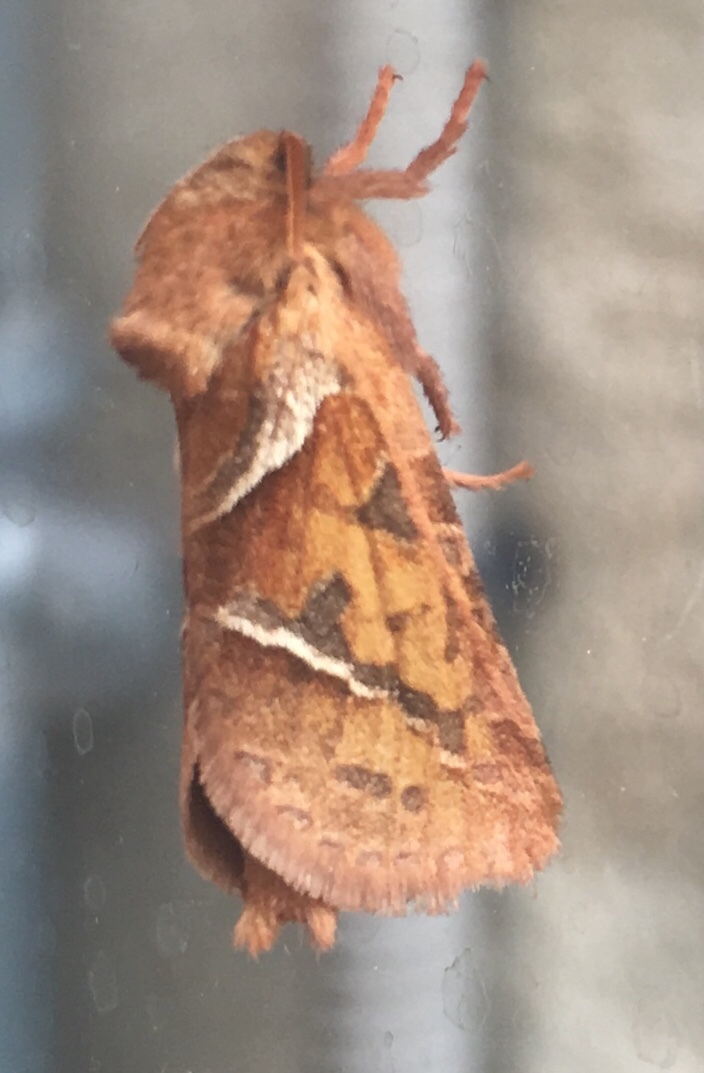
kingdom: Animalia
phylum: Arthropoda
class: Insecta
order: Lepidoptera
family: Hepialidae
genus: Triodia
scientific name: Triodia sylvina
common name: Orange swift
